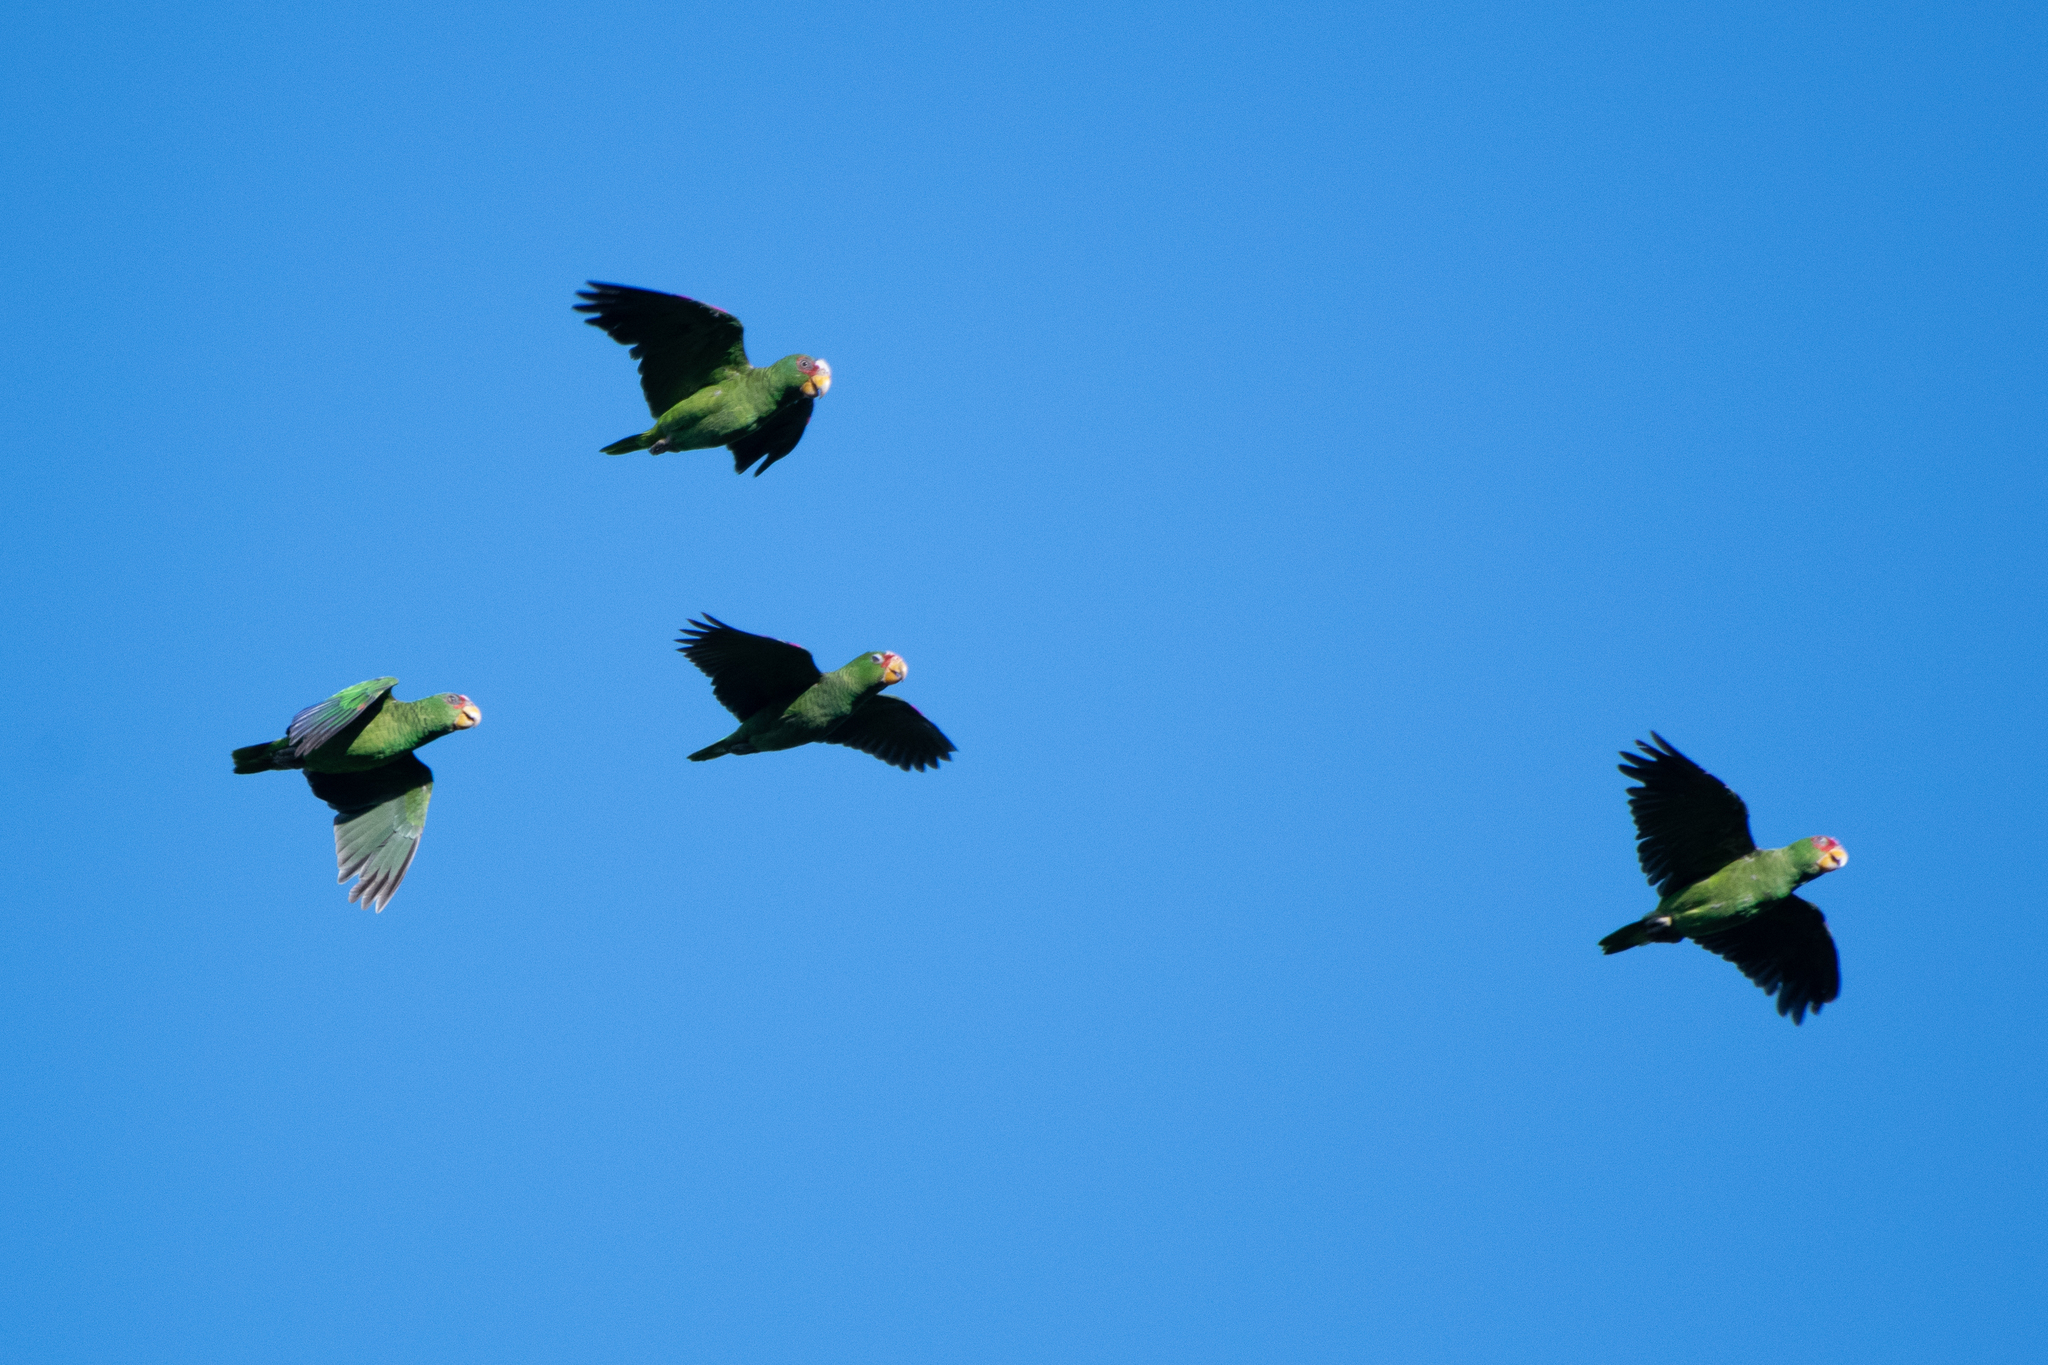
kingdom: Animalia
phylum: Chordata
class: Aves
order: Psittaciformes
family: Psittacidae
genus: Amazona
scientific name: Amazona albifrons
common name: White-fronted amazon
